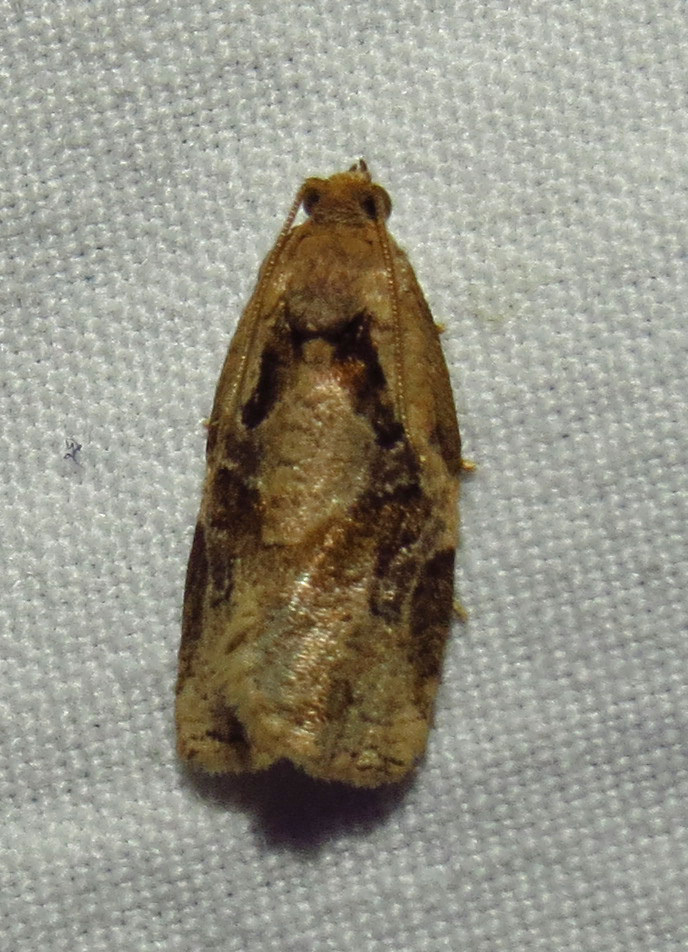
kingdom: Animalia
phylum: Arthropoda
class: Insecta
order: Lepidoptera
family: Tortricidae
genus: Archips
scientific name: Archips grisea
